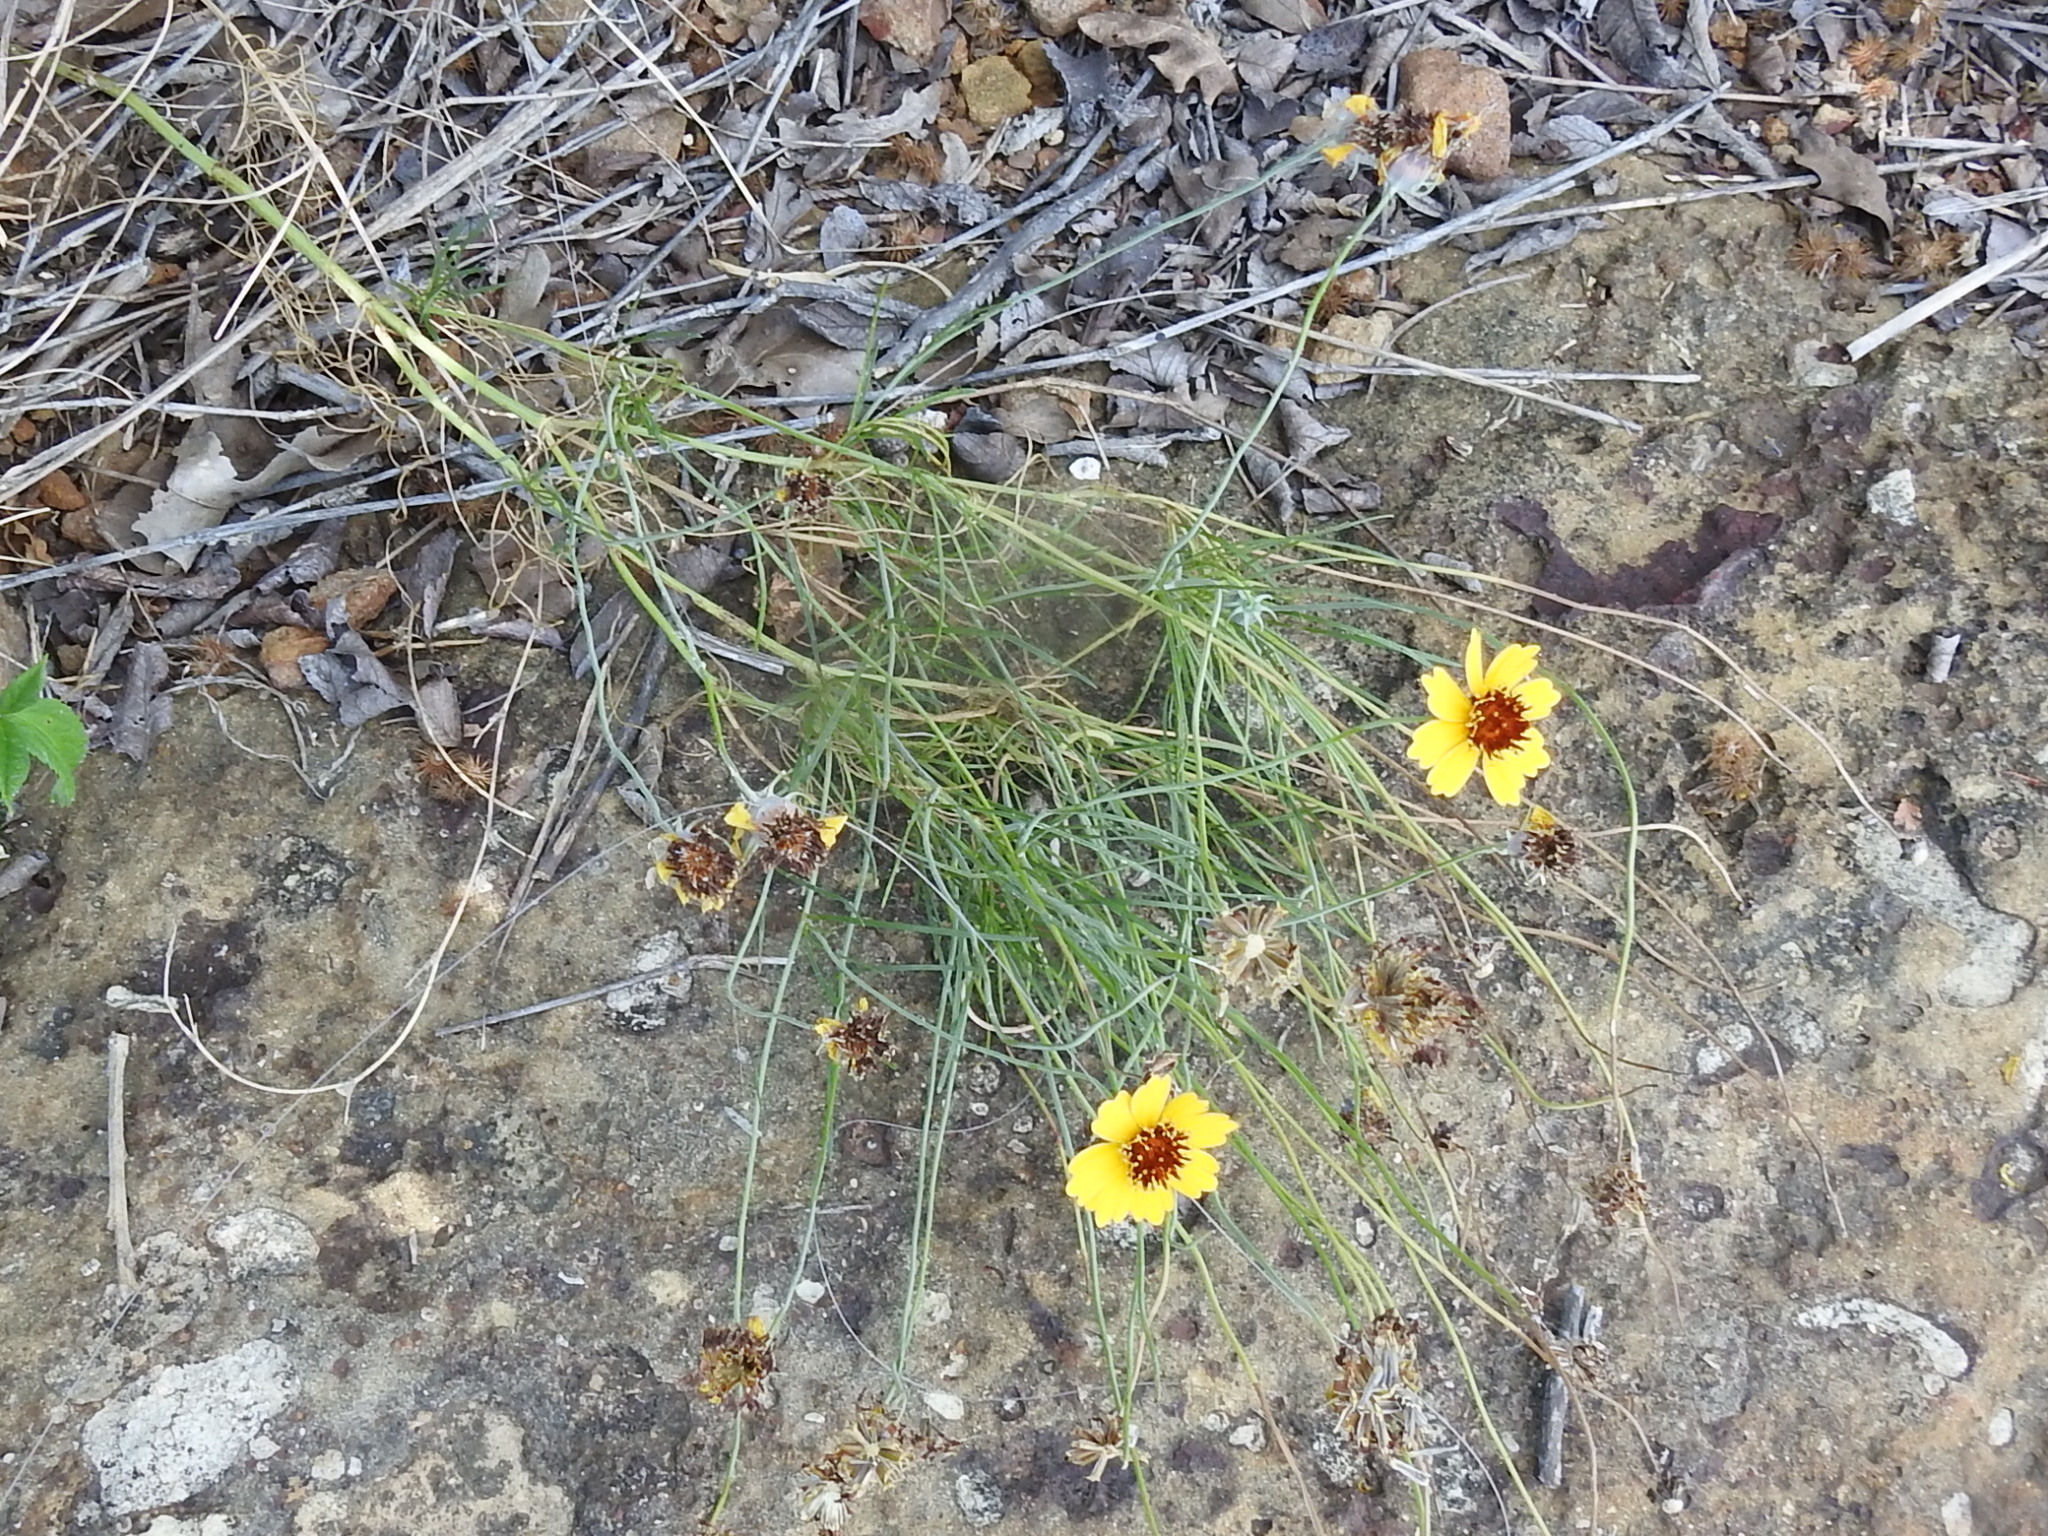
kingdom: Plantae
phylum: Tracheophyta
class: Magnoliopsida
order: Asterales
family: Asteraceae
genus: Thelesperma
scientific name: Thelesperma filifolium
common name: Stiff greenthread
